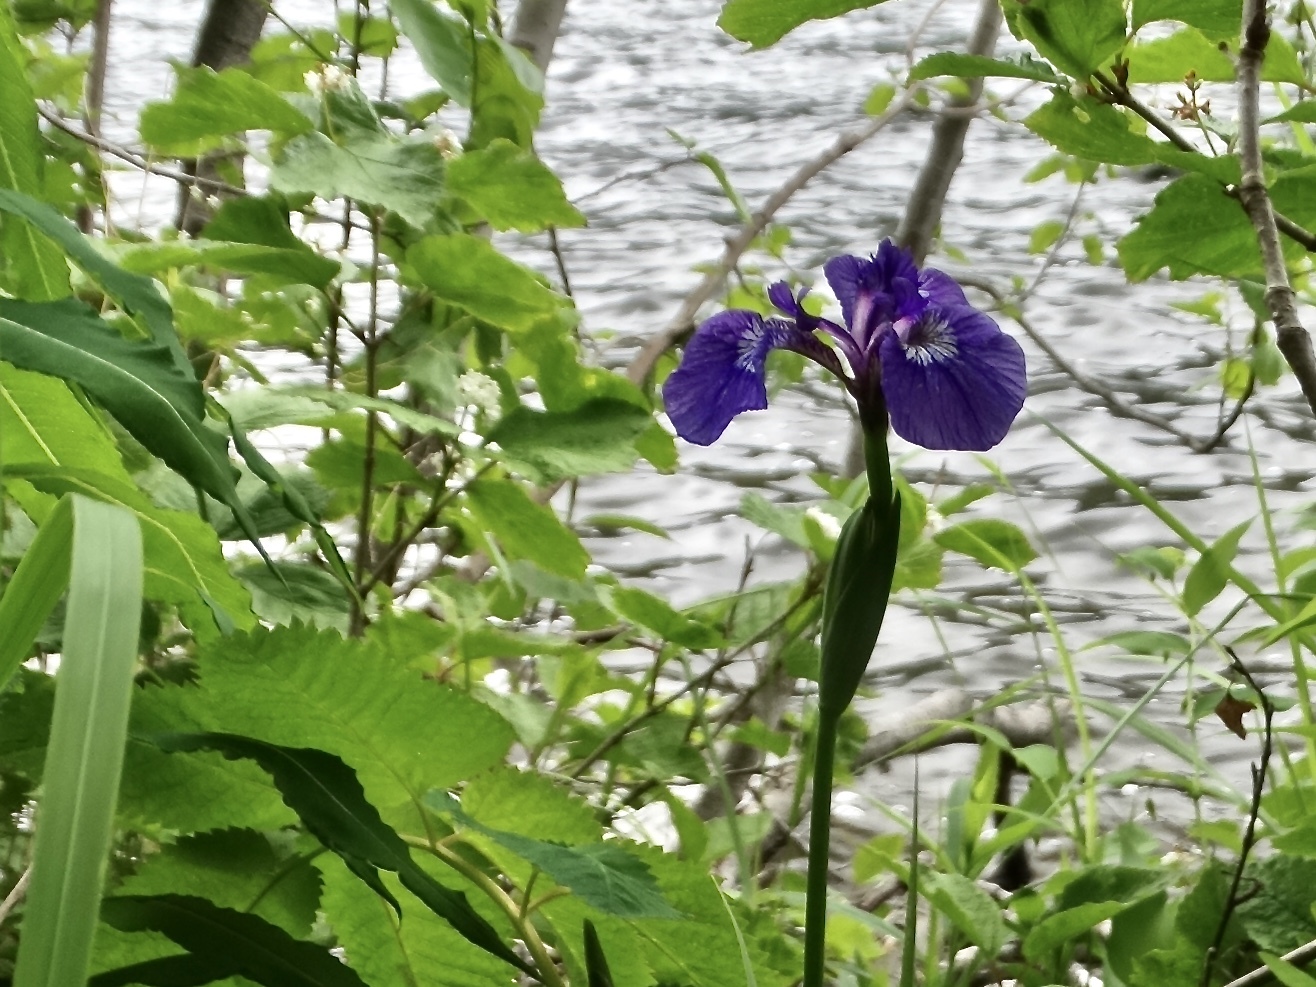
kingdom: Plantae
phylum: Tracheophyta
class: Liliopsida
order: Asparagales
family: Iridaceae
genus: Iris
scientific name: Iris setosa
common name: Arctic blue flag
